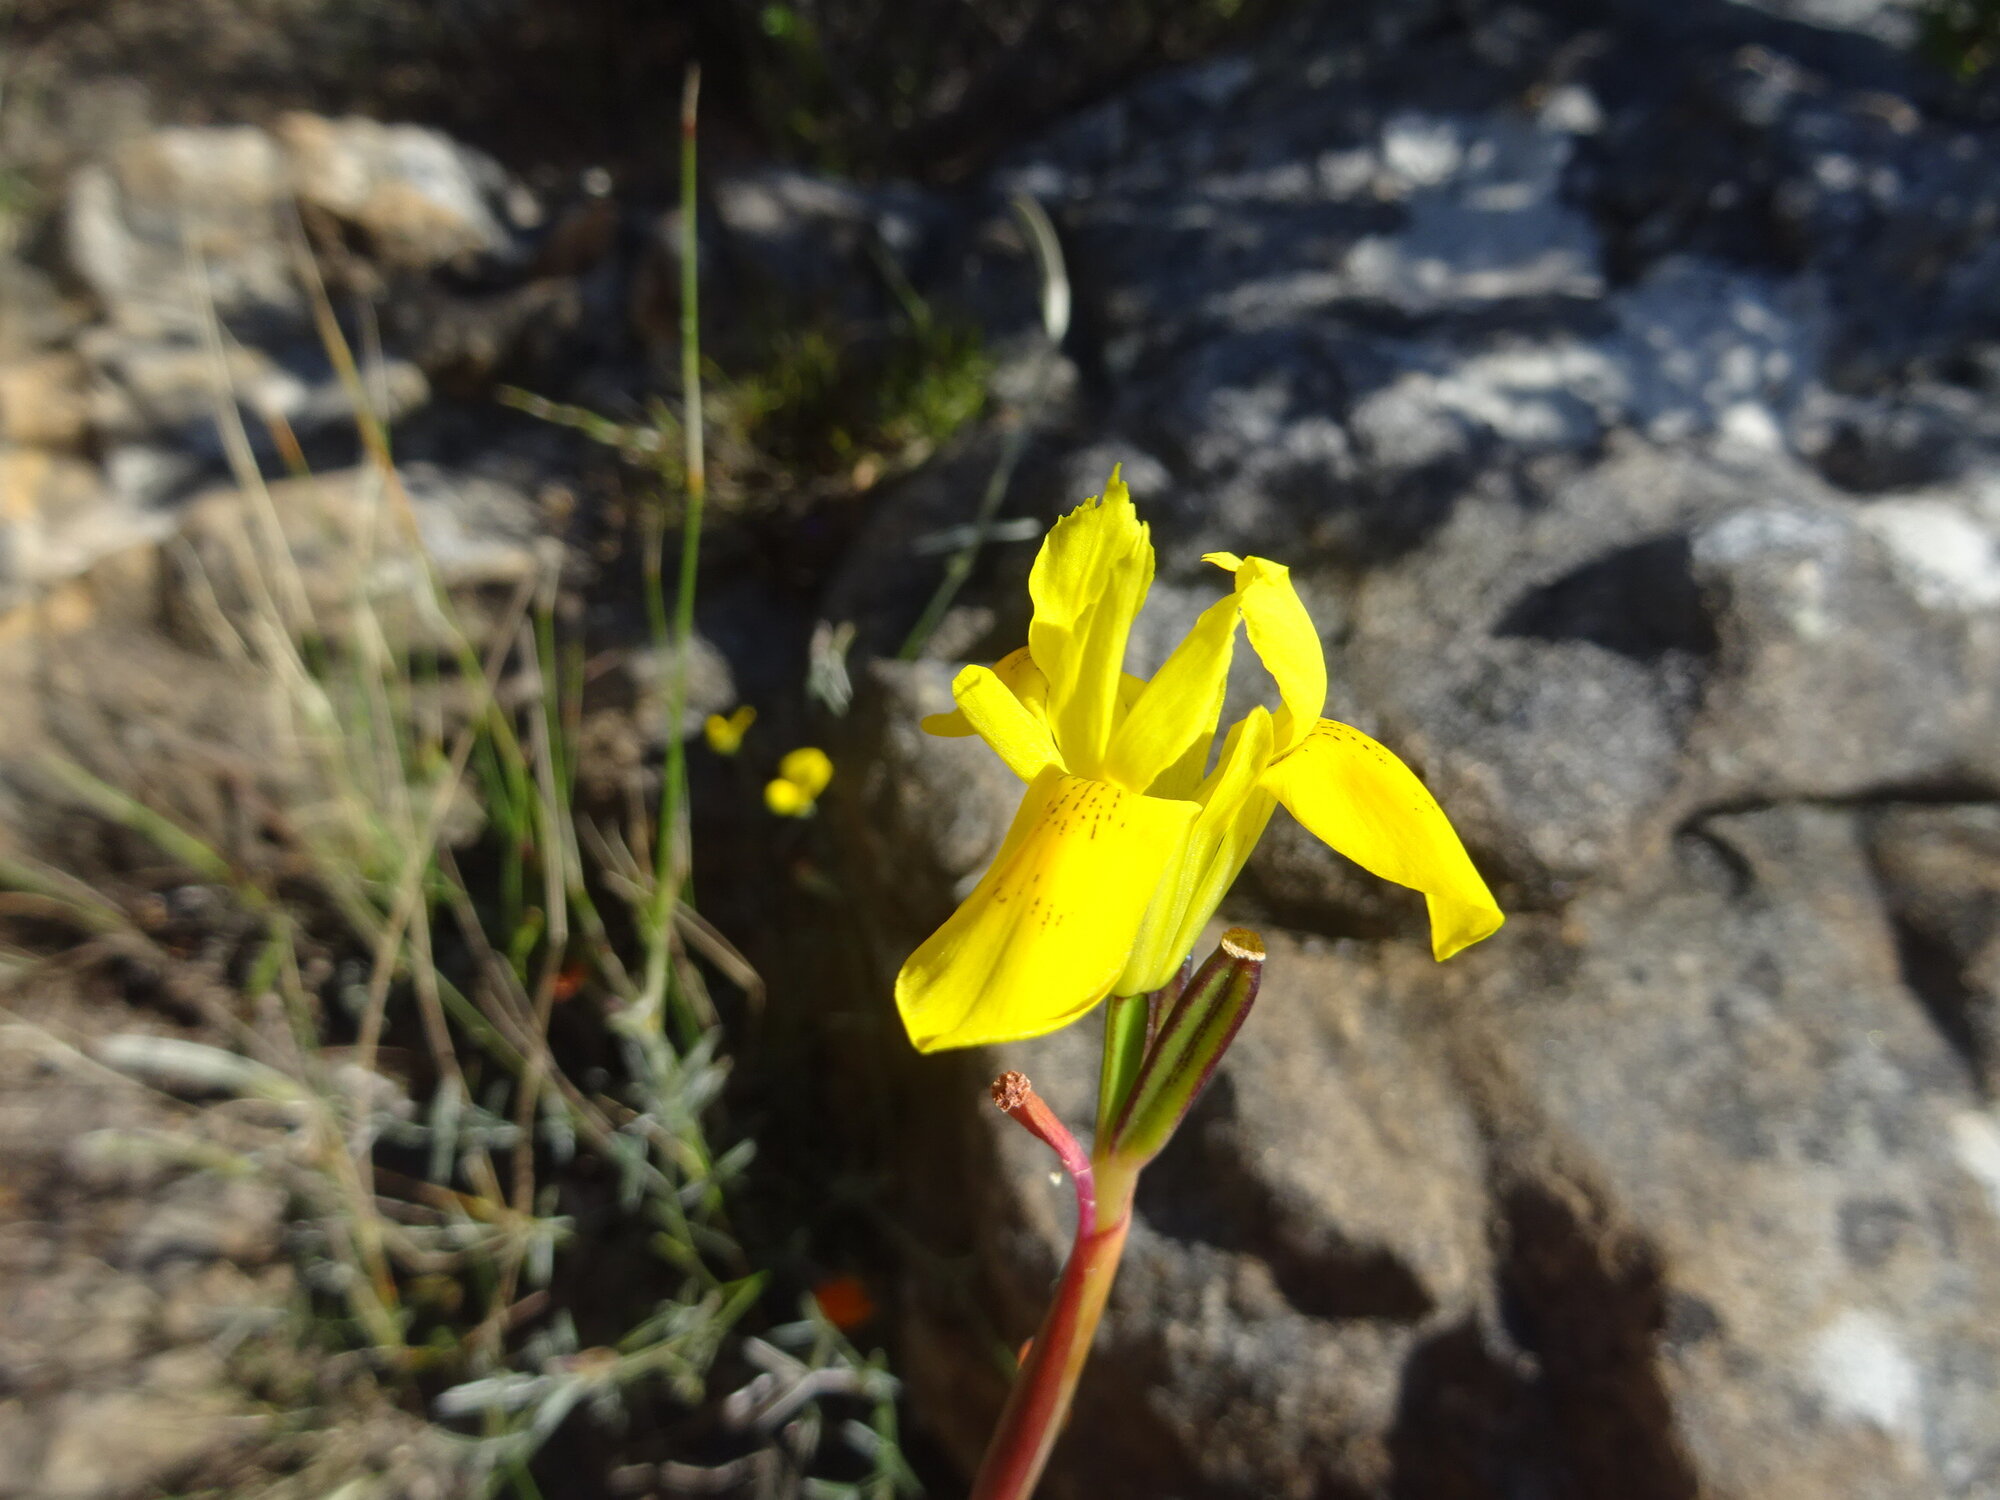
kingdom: Plantae
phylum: Tracheophyta
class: Liliopsida
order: Asparagales
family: Iridaceae
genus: Moraea
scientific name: Moraea neglecta
